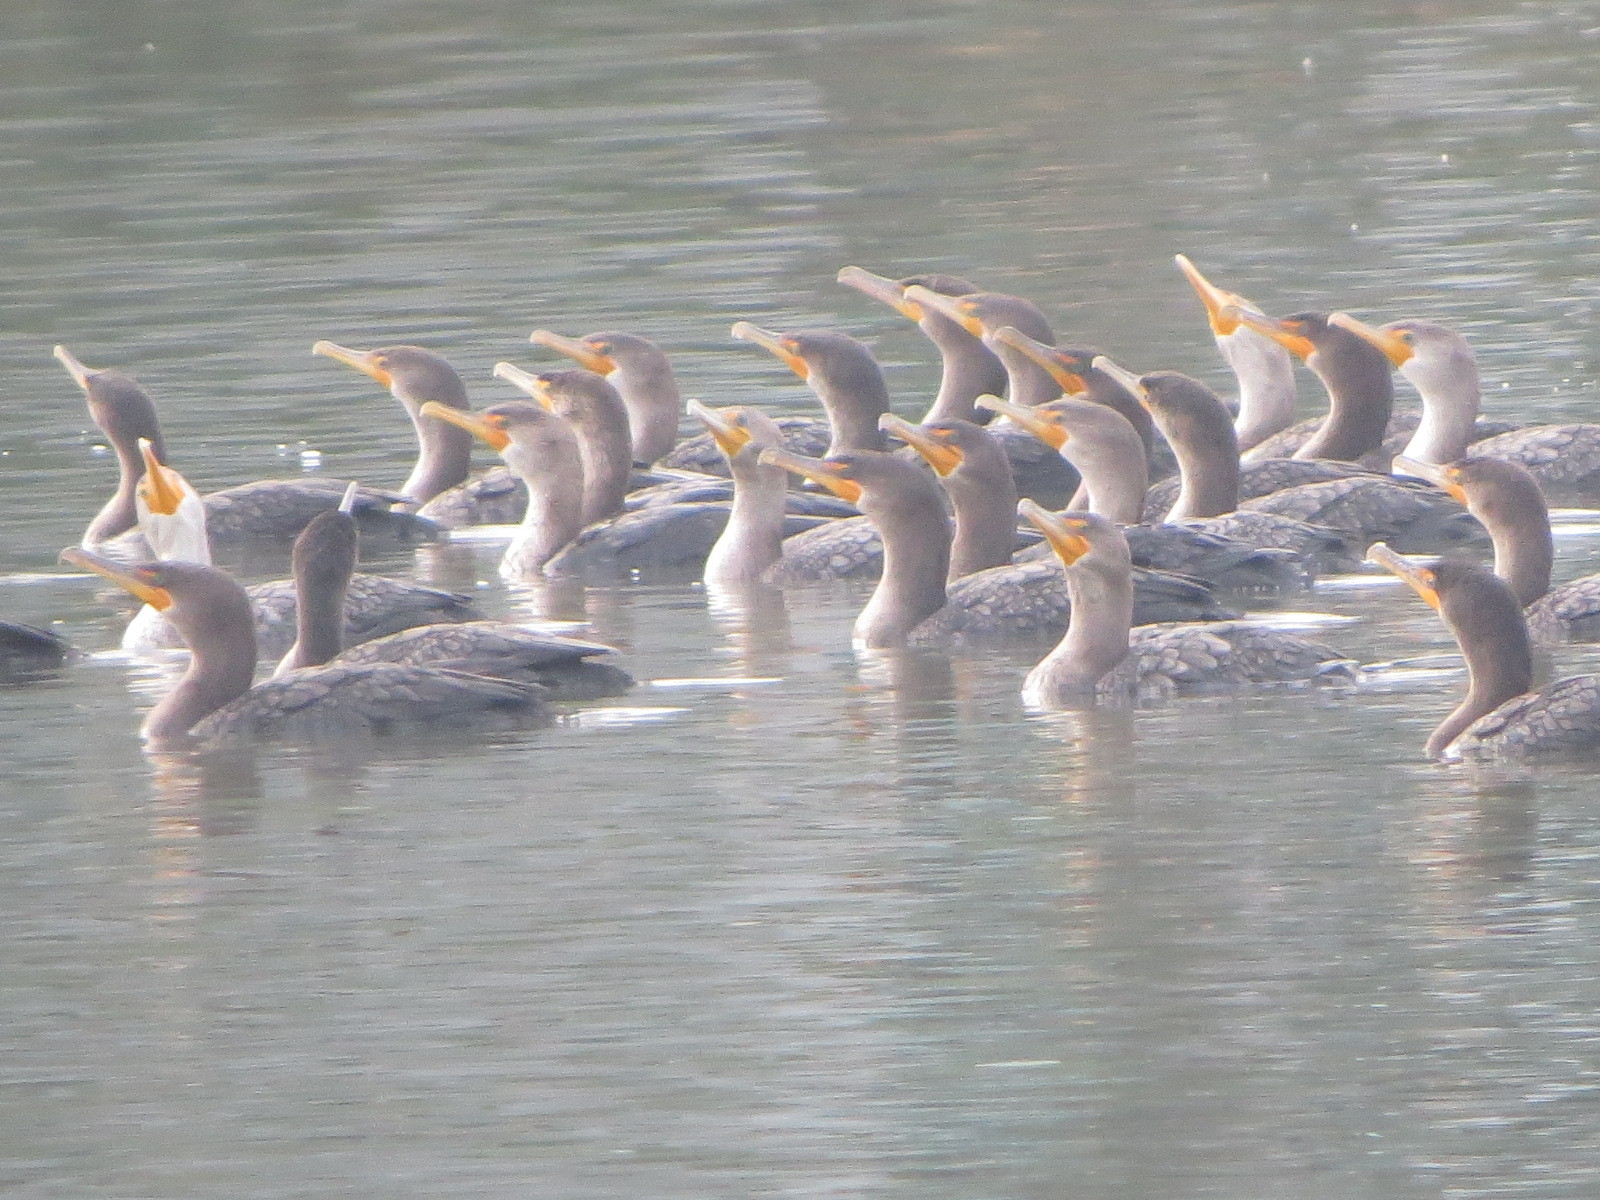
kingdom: Animalia
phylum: Chordata
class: Aves
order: Suliformes
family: Phalacrocoracidae
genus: Phalacrocorax
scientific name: Phalacrocorax auritus
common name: Double-crested cormorant
